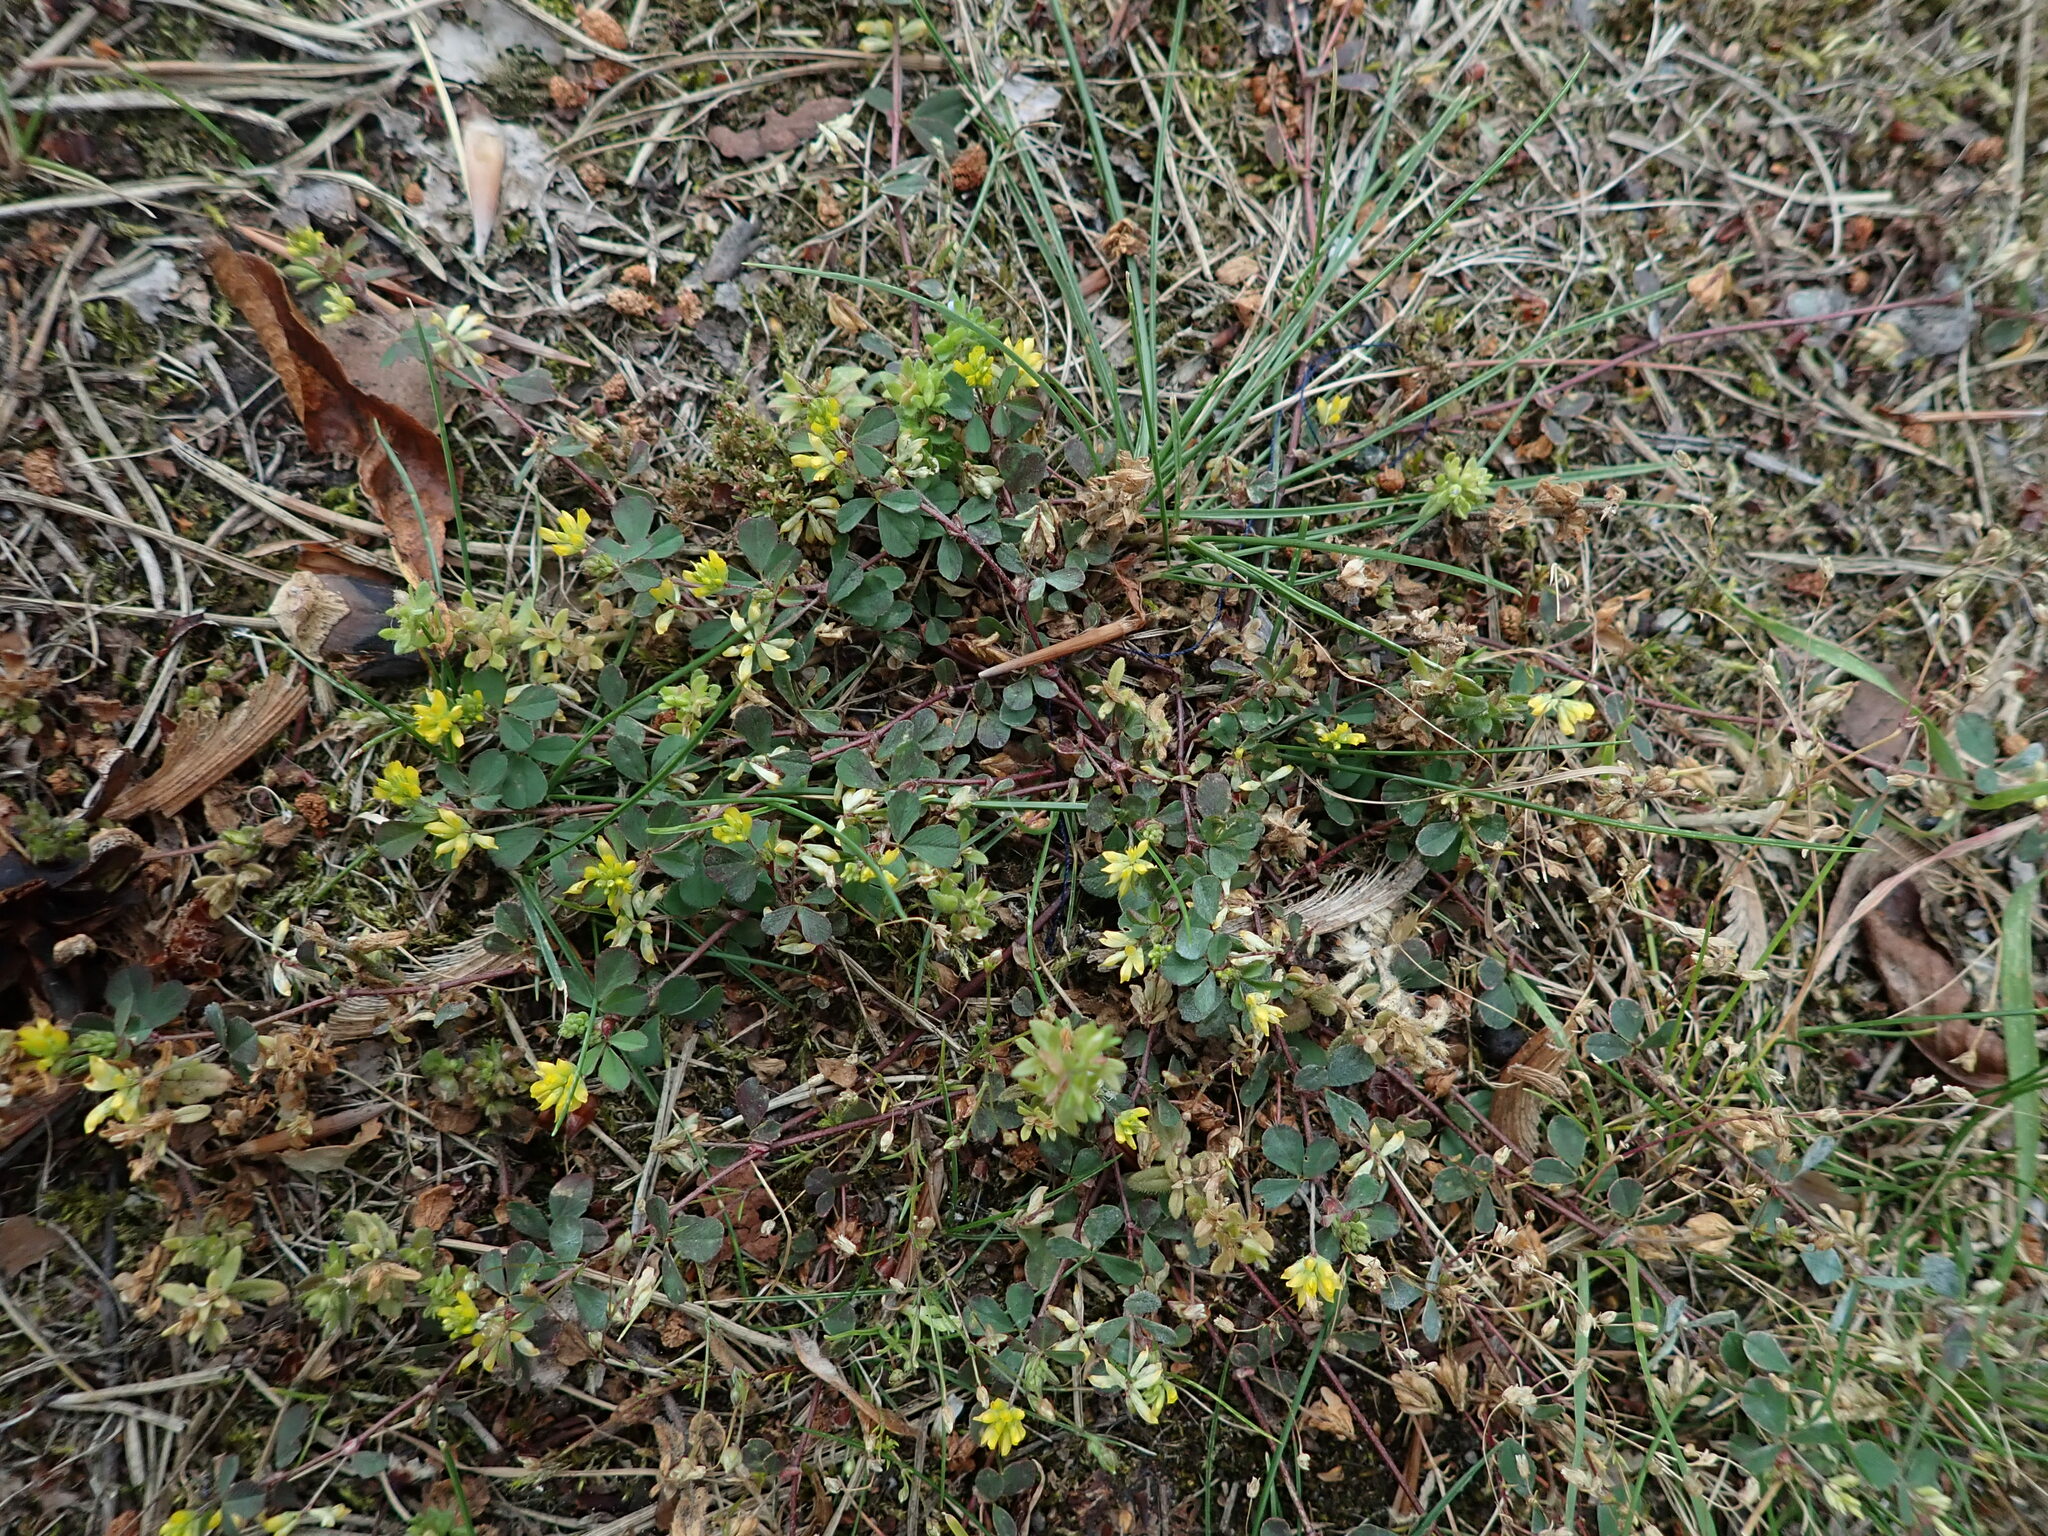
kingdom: Plantae
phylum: Tracheophyta
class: Magnoliopsida
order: Fabales
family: Fabaceae
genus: Trifolium
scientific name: Trifolium dubium
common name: Suckling clover
